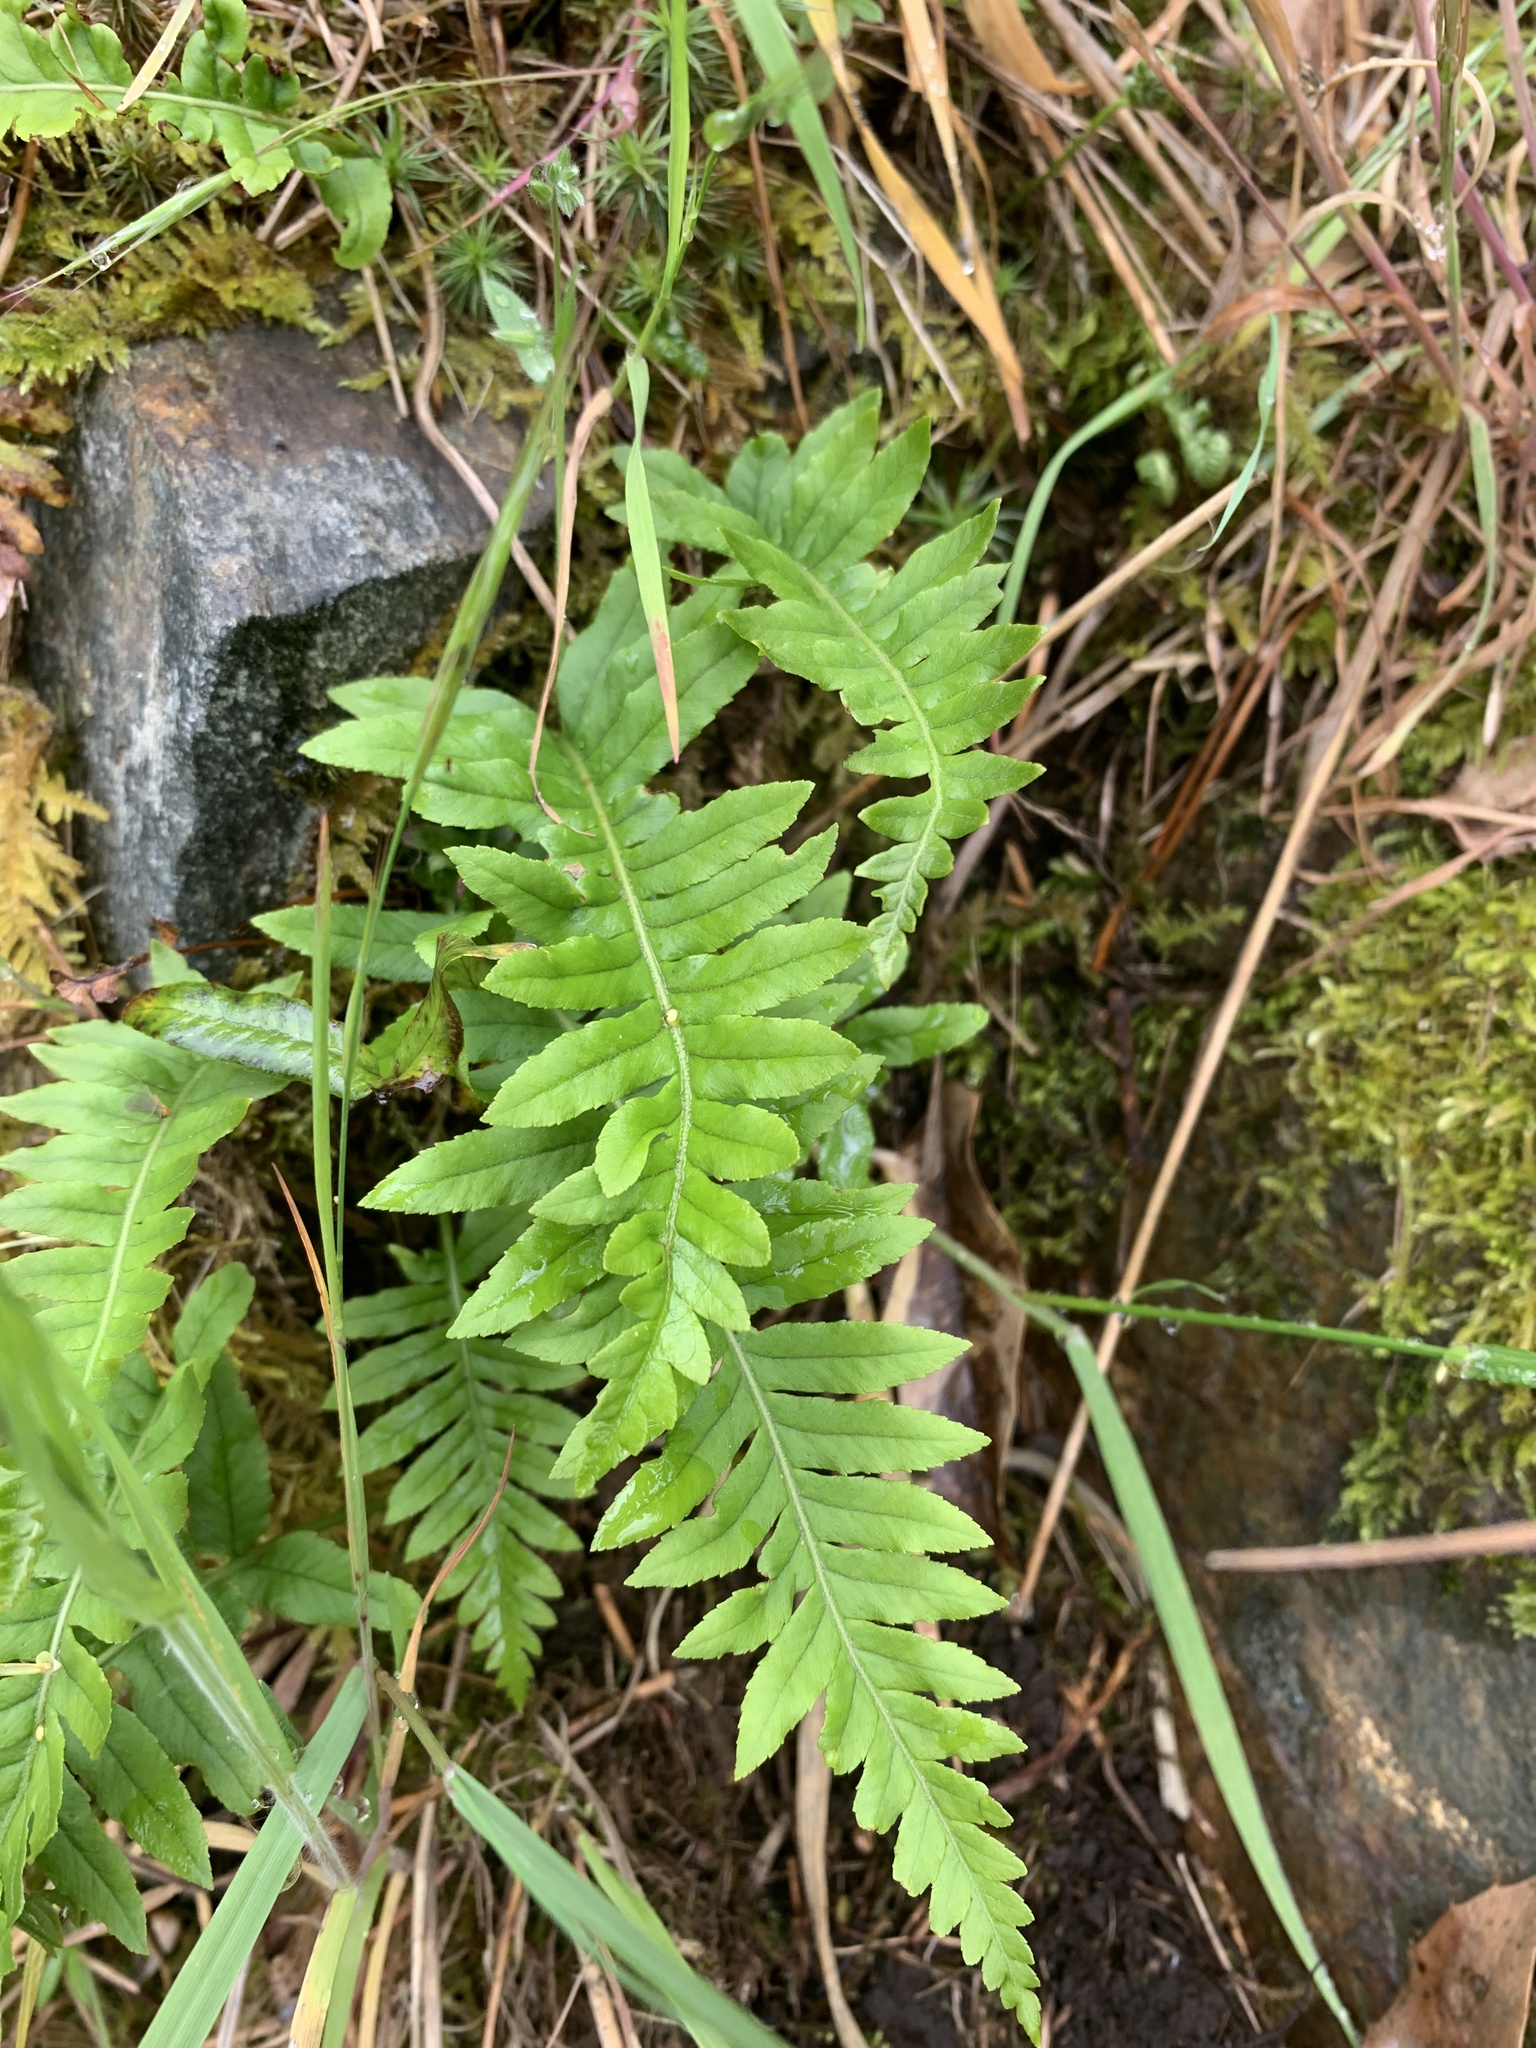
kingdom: Plantae
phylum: Tracheophyta
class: Polypodiopsida
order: Polypodiales
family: Polypodiaceae
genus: Polypodium
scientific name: Polypodium glycyrrhiza
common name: Licorice fern
